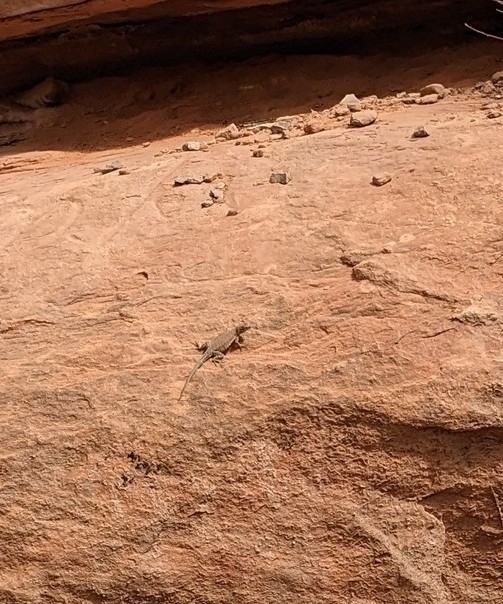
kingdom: Animalia
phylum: Chordata
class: Squamata
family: Phrynosomatidae
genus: Uta
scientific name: Uta stansburiana
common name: Side-blotched lizard
